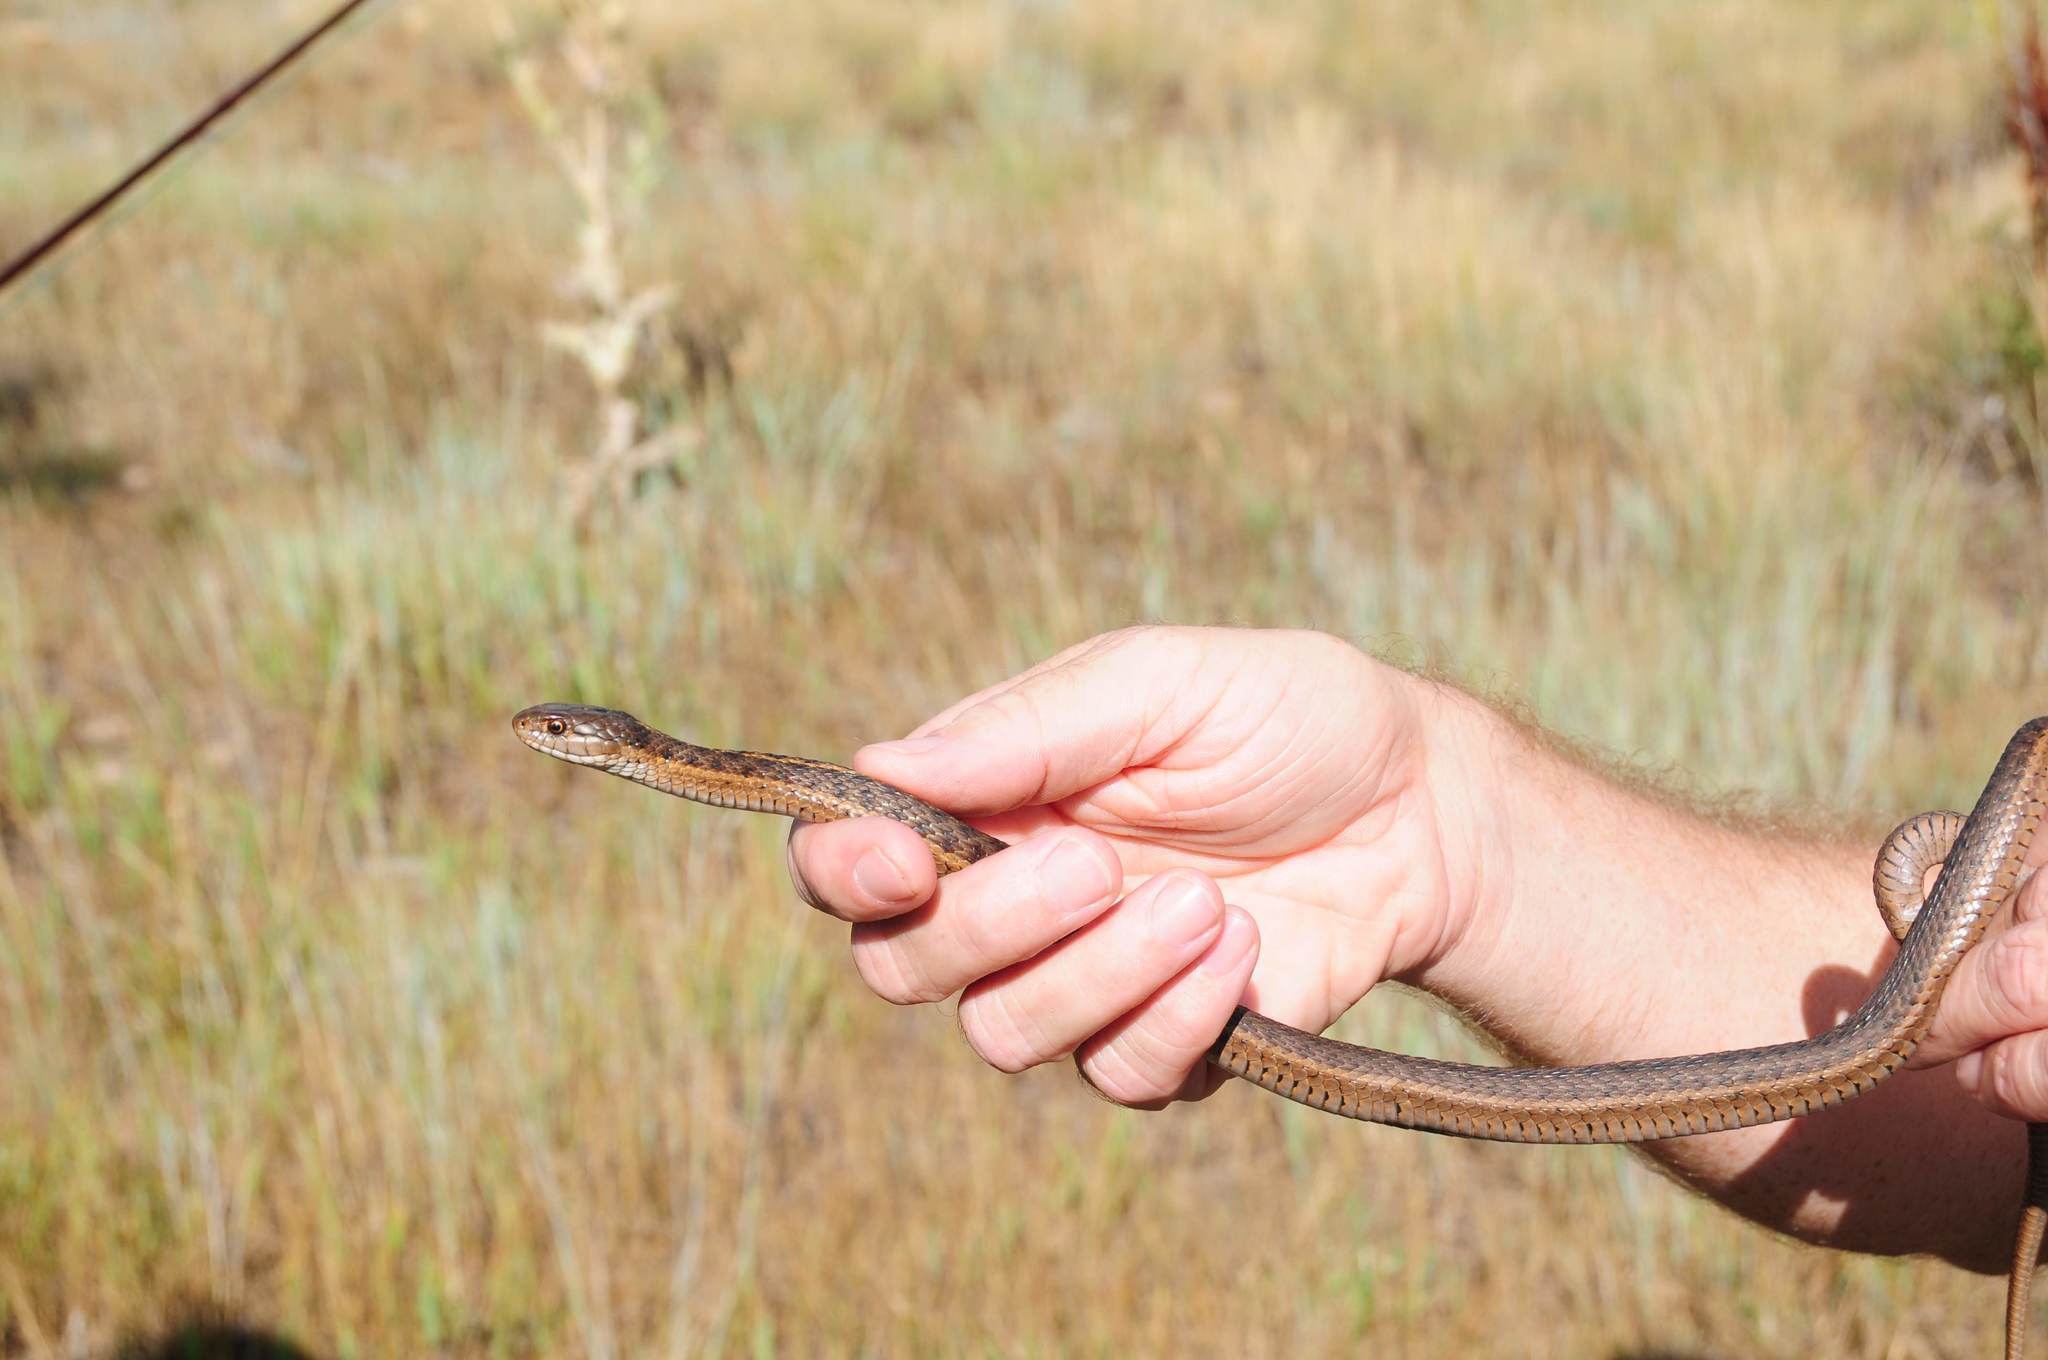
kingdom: Animalia
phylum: Chordata
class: Squamata
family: Colubridae
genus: Thamnophis
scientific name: Thamnophis elegans
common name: Western terrestrial garter snake
